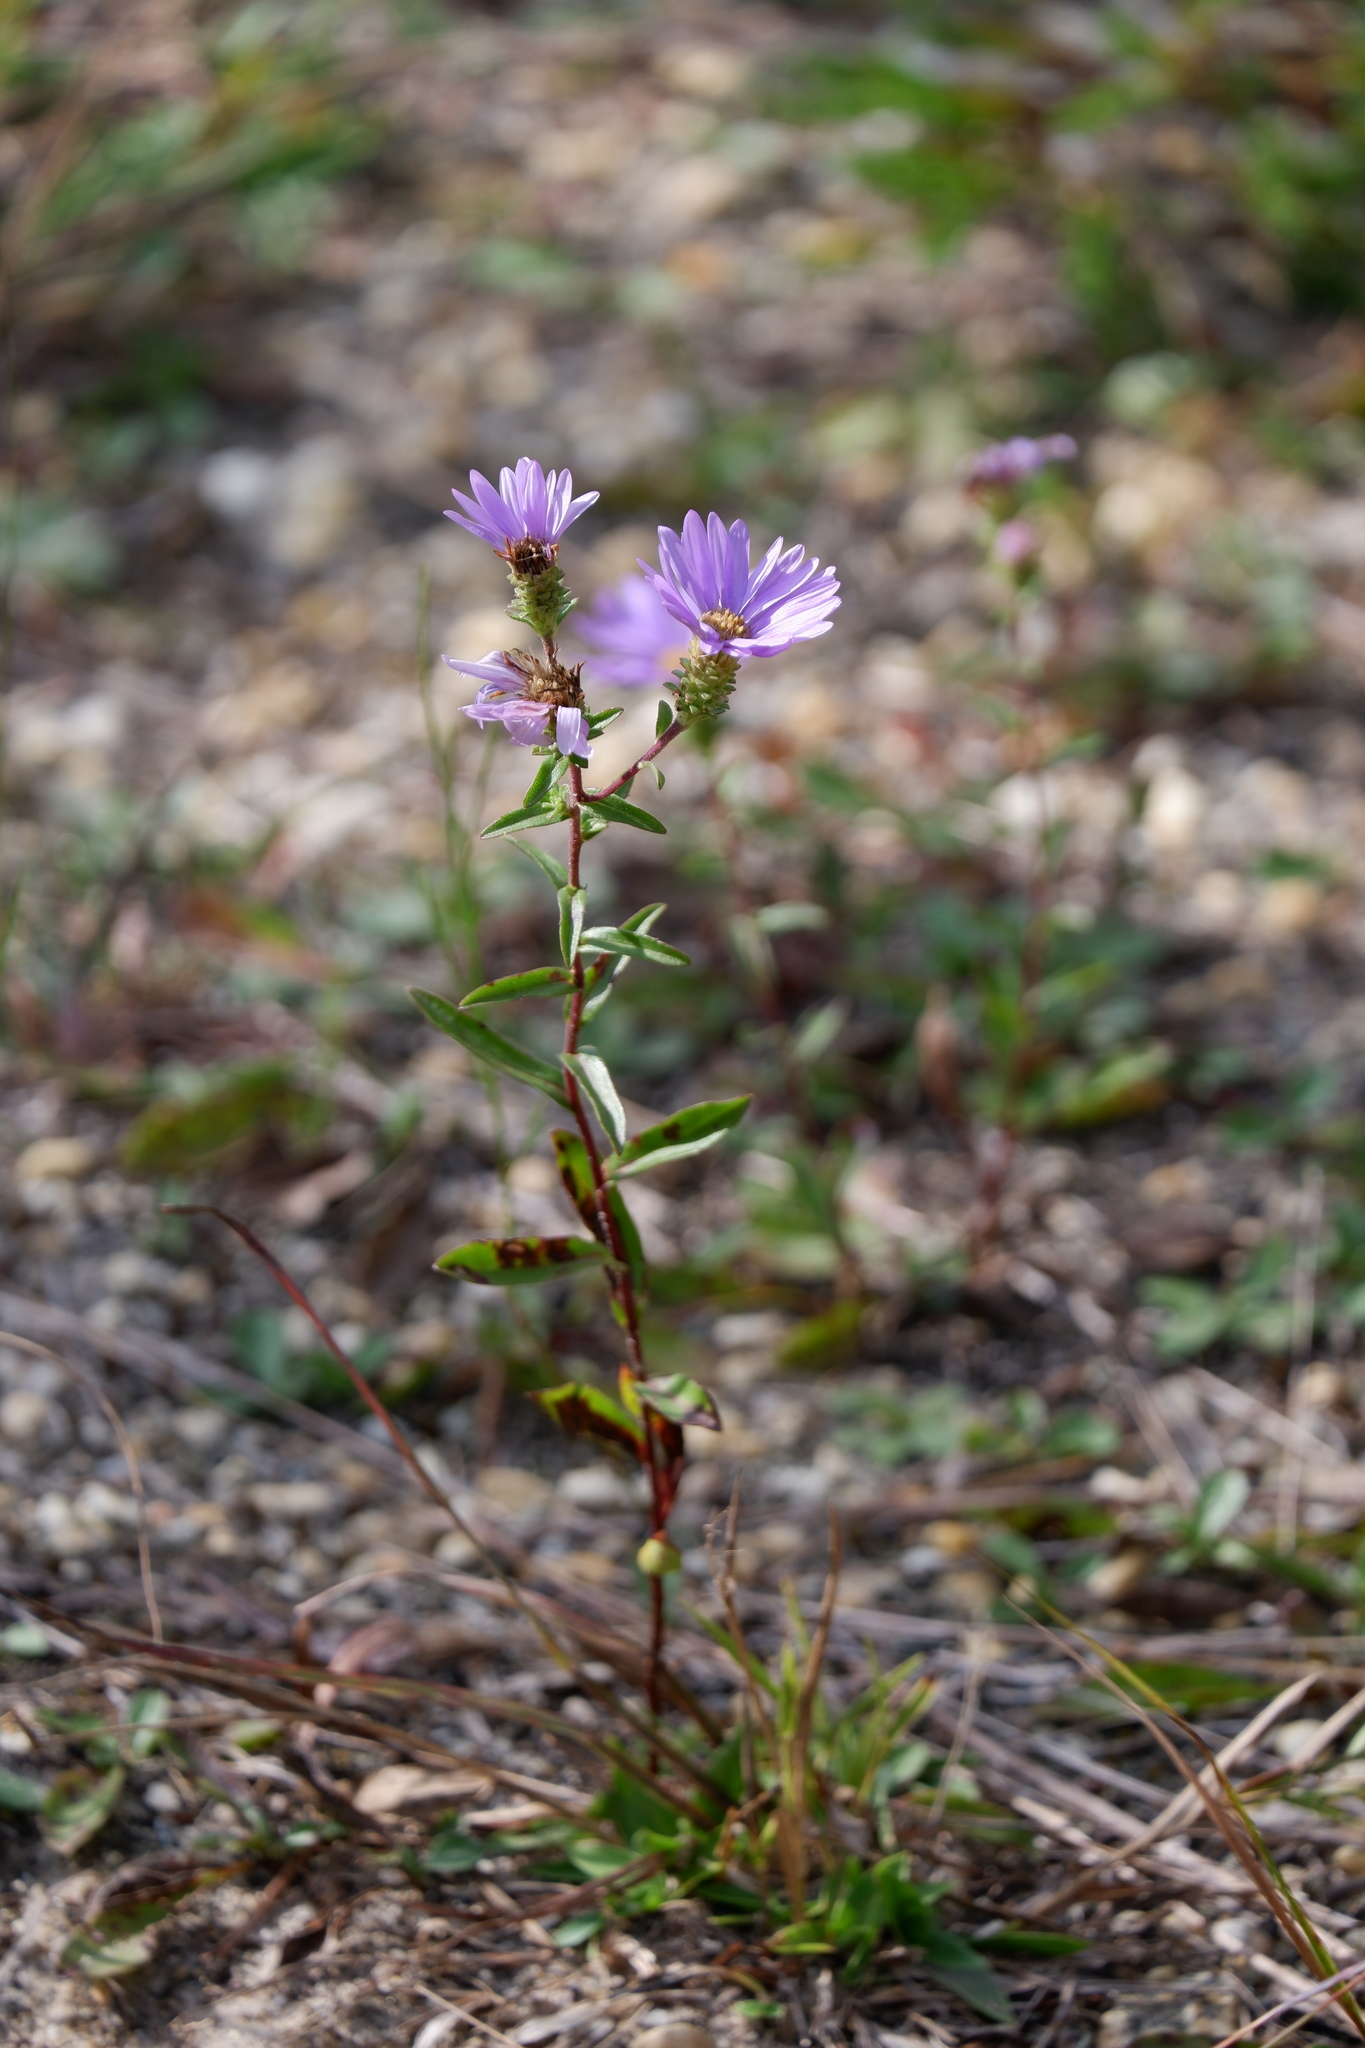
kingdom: Plantae
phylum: Tracheophyta
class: Magnoliopsida
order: Asterales
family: Asteraceae
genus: Eurybia
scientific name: Eurybia spectabilis
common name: Low showy aster
